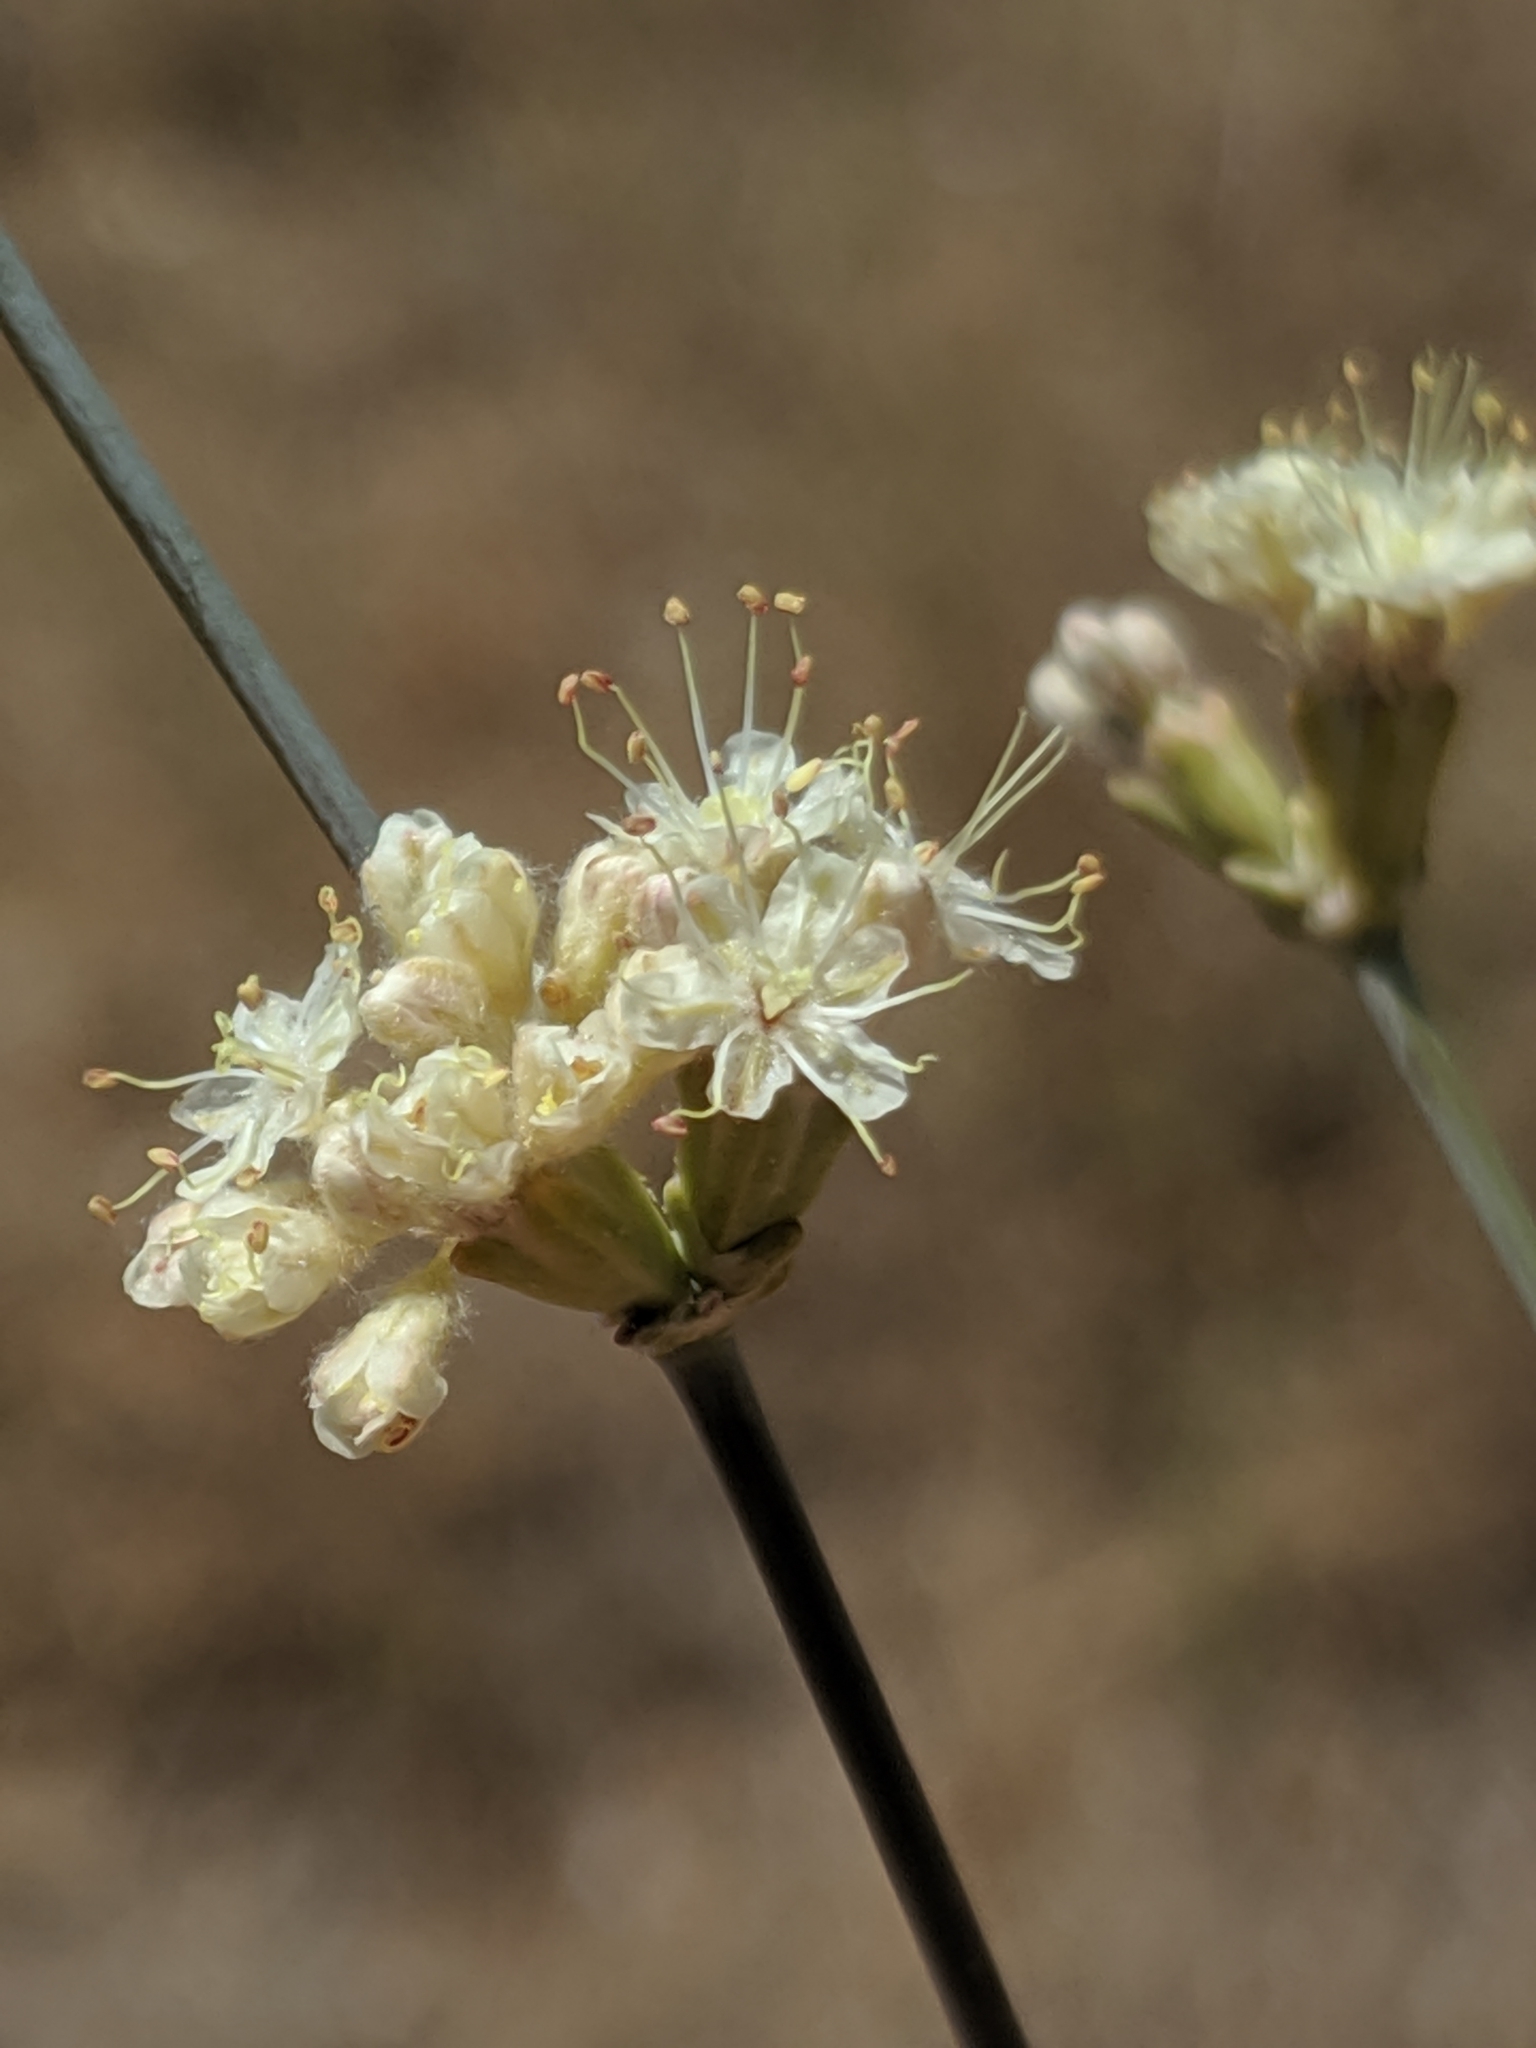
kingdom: Plantae
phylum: Tracheophyta
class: Magnoliopsida
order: Caryophyllales
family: Polygonaceae
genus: Eriogonum
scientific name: Eriogonum nudum
